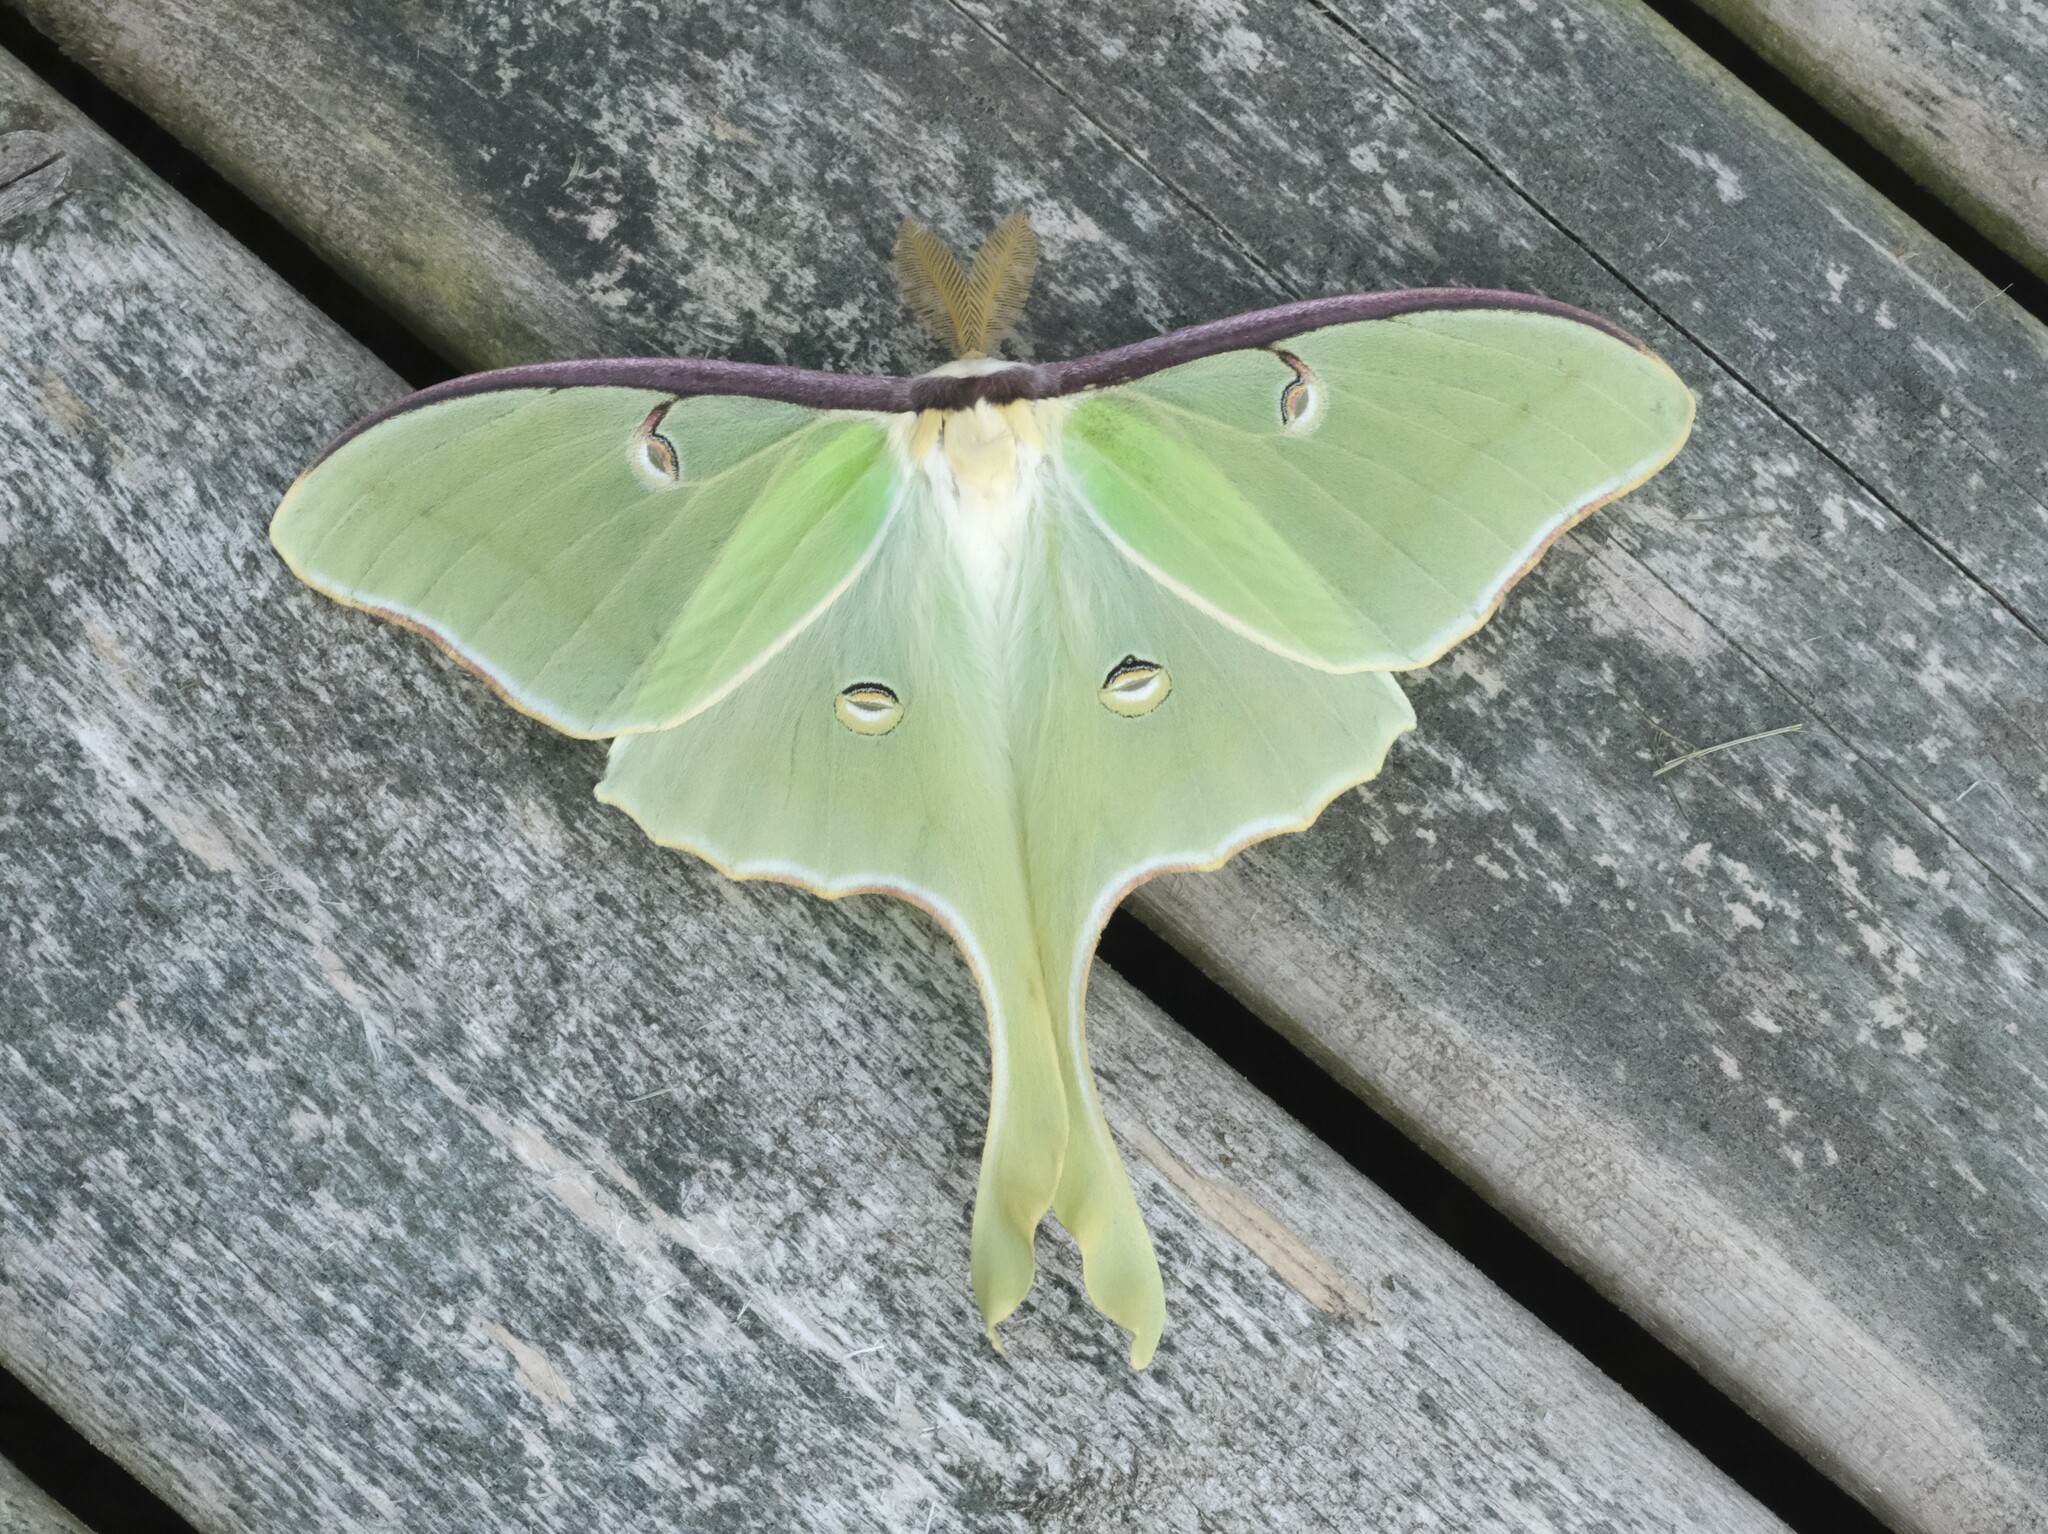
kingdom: Animalia
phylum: Arthropoda
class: Insecta
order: Lepidoptera
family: Saturniidae
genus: Actias
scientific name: Actias luna
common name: Luna moth
